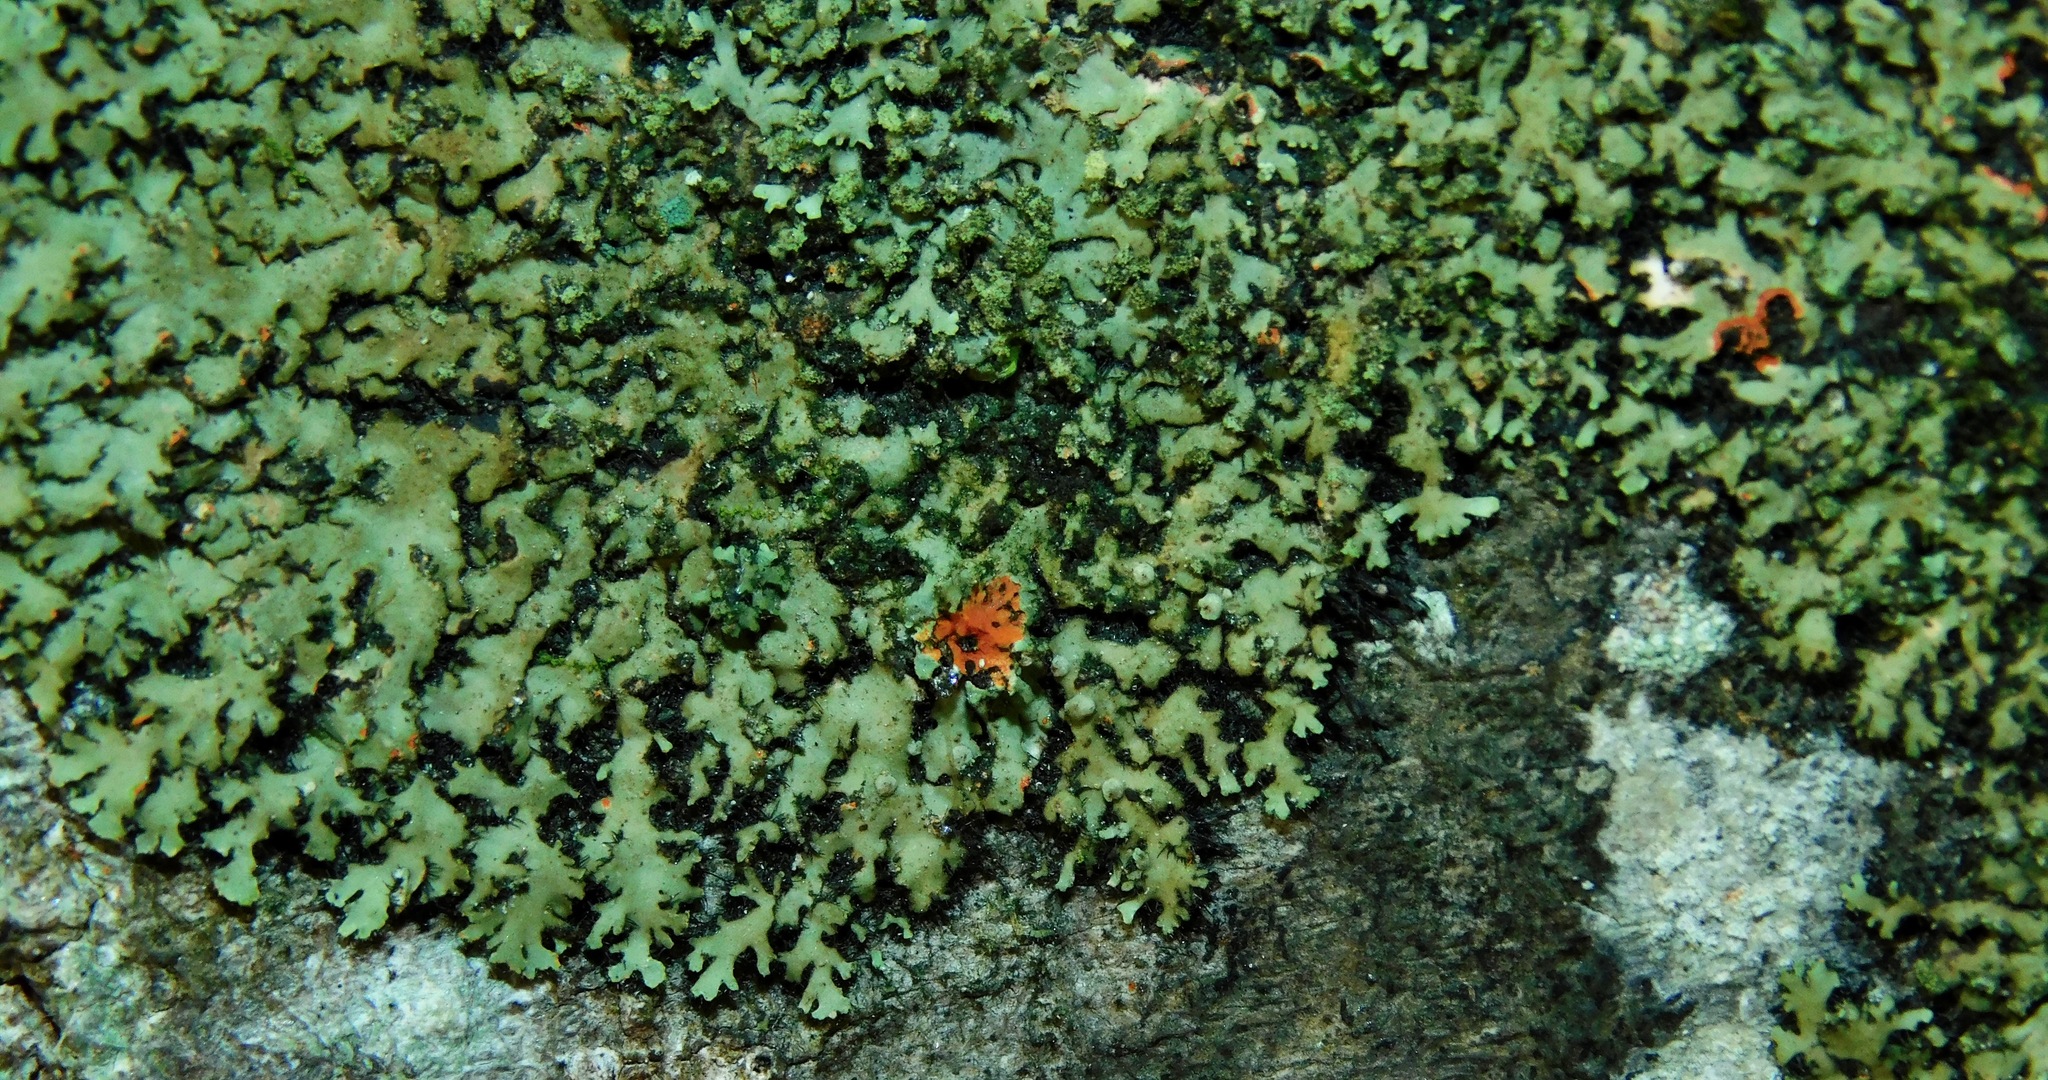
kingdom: Fungi
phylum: Ascomycota
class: Lecanoromycetes
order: Caliciales
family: Physciaceae
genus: Phaeophyscia
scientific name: Phaeophyscia rubropulchra
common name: Orange-cored shadow lichen
